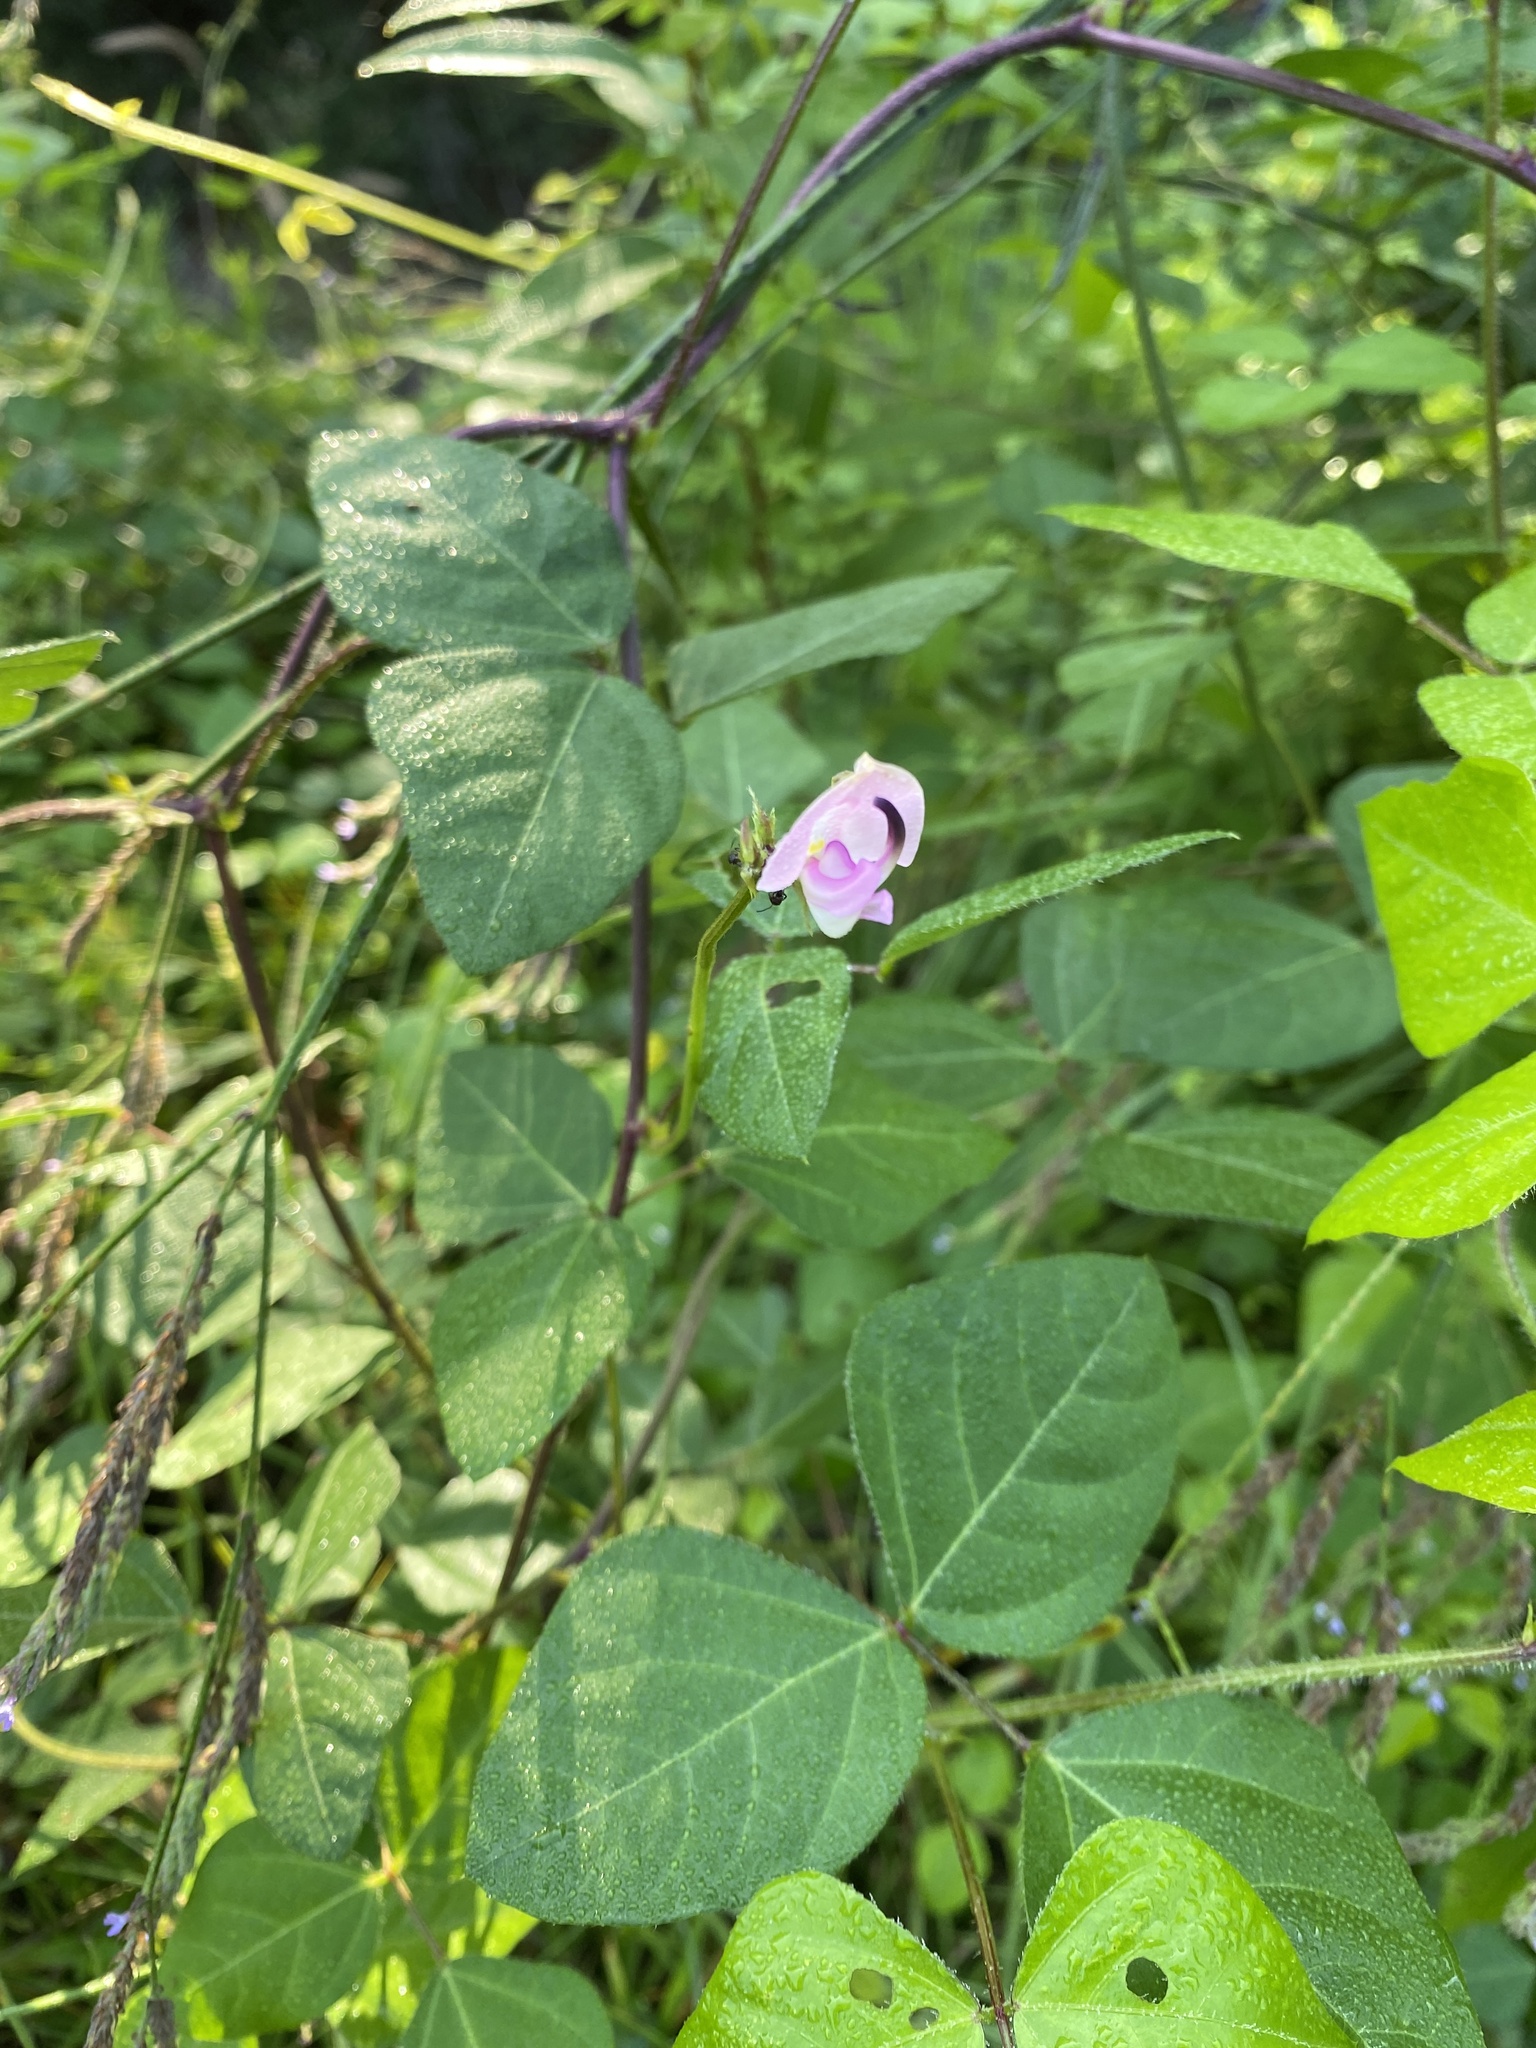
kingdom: Plantae
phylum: Tracheophyta
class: Magnoliopsida
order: Fabales
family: Fabaceae
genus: Strophostyles
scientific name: Strophostyles helvola
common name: Trailing wild bean
